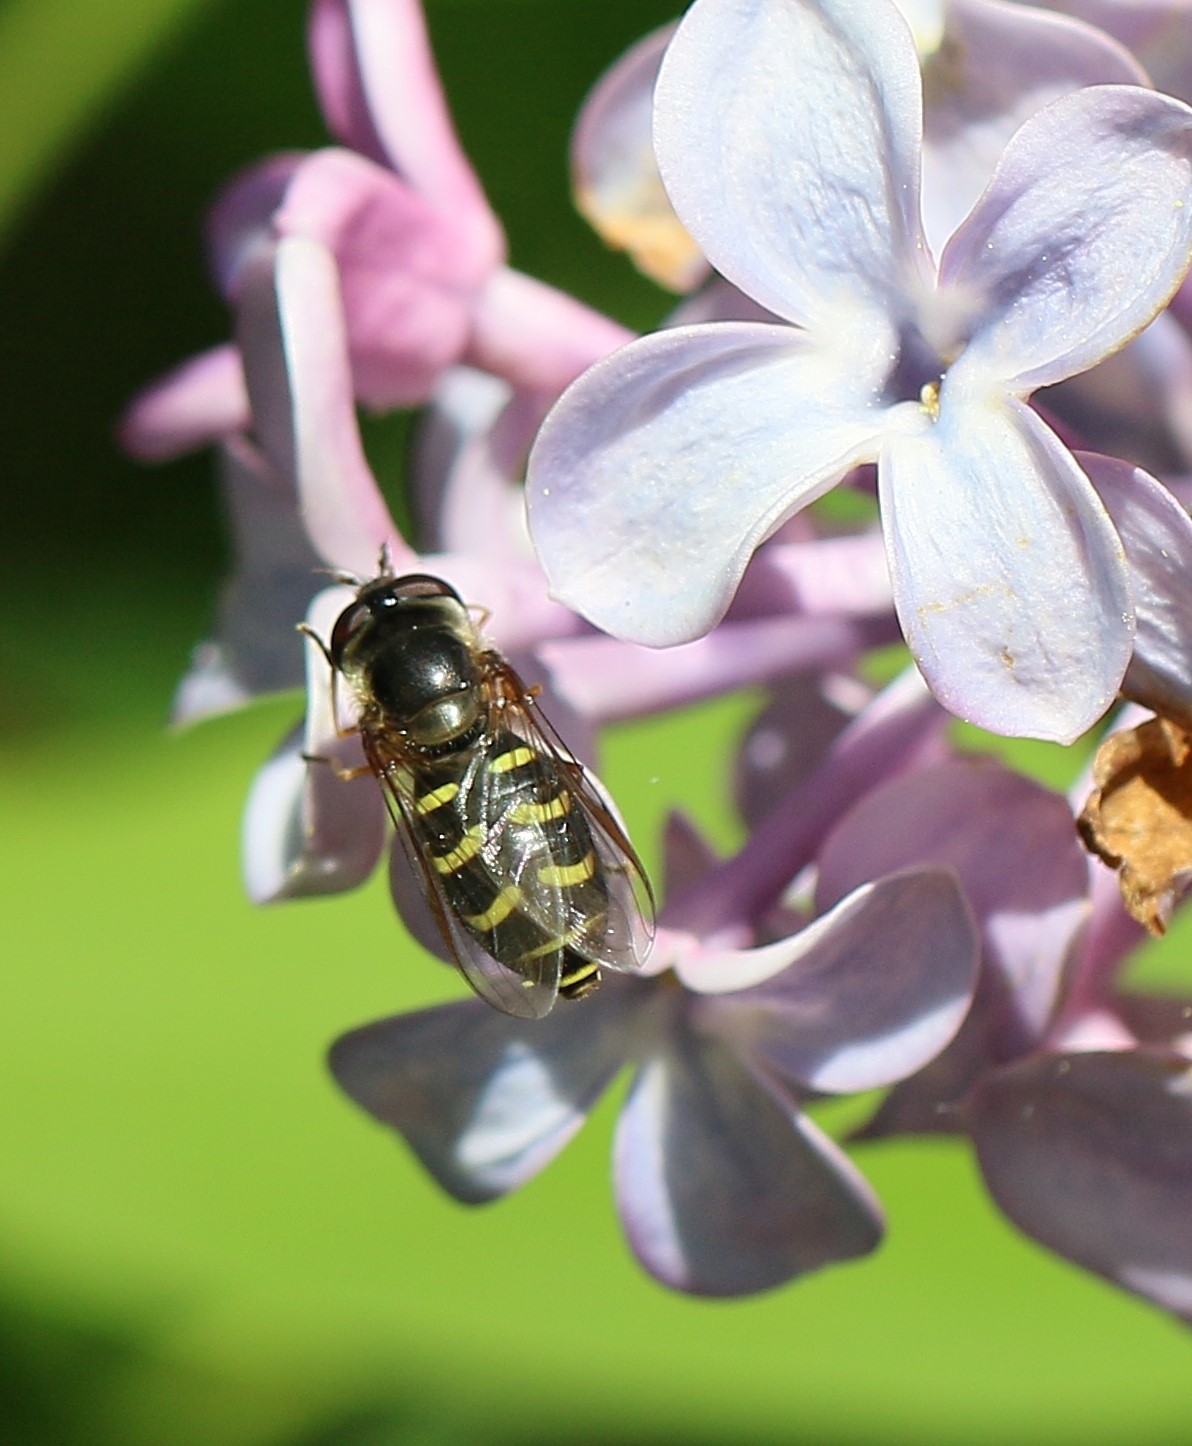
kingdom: Animalia
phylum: Arthropoda
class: Insecta
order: Diptera
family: Syrphidae
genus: Lapposyrphus
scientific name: Lapposyrphus lapponicus
